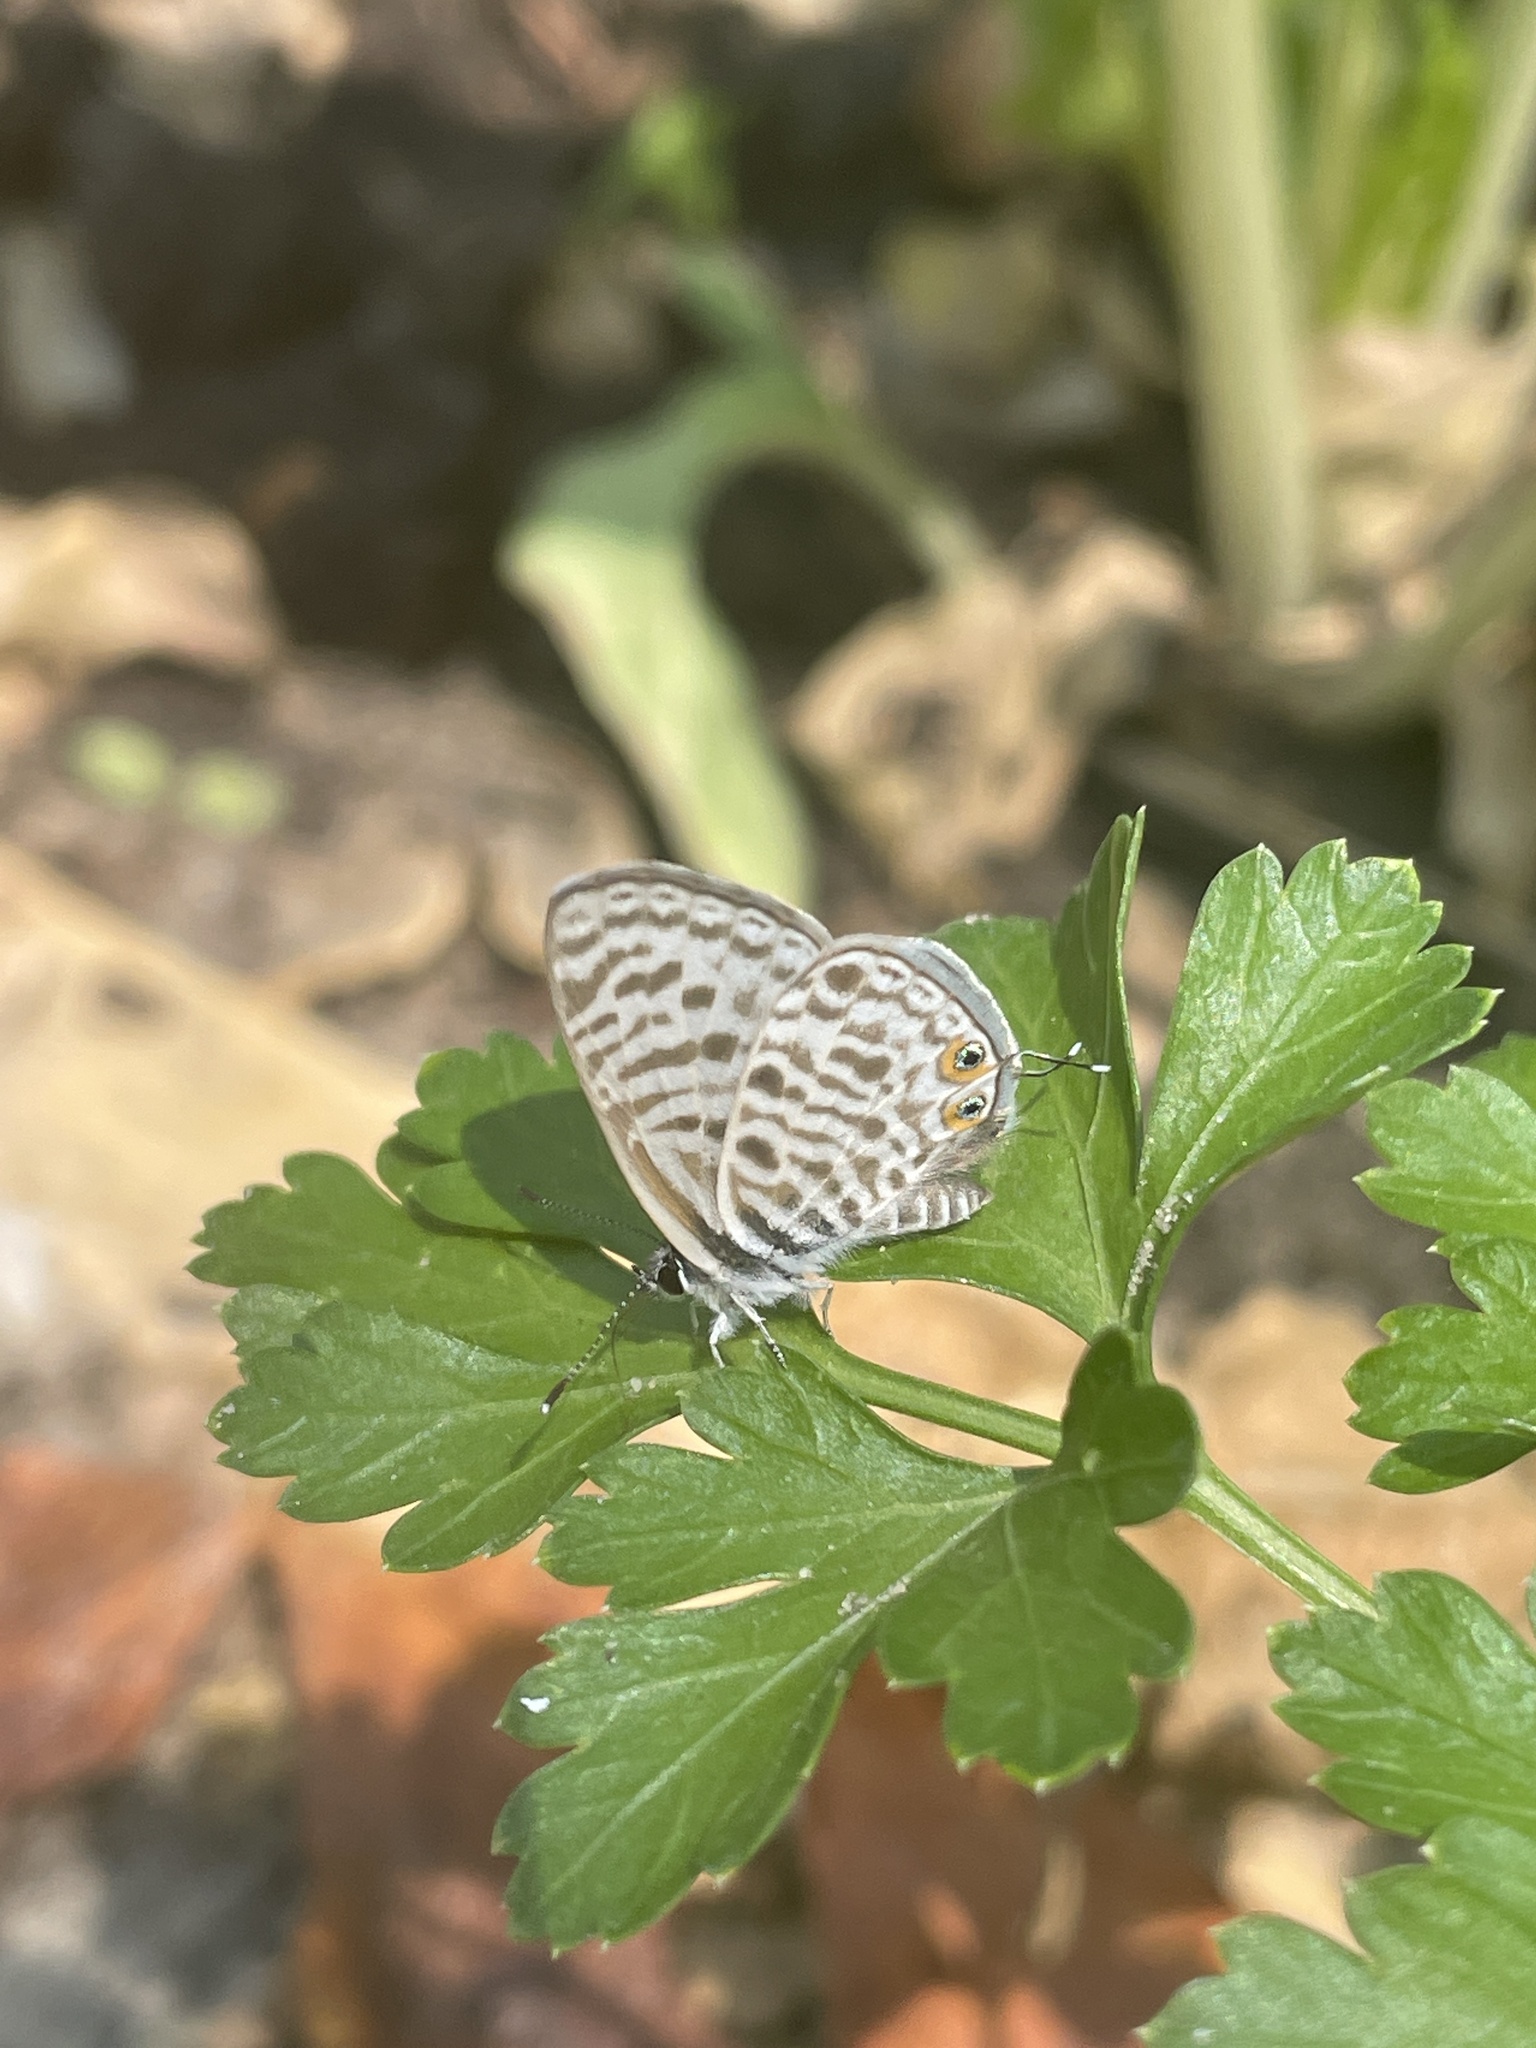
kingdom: Animalia
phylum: Arthropoda
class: Insecta
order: Lepidoptera
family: Lycaenidae
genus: Leptotes
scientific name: Leptotes
